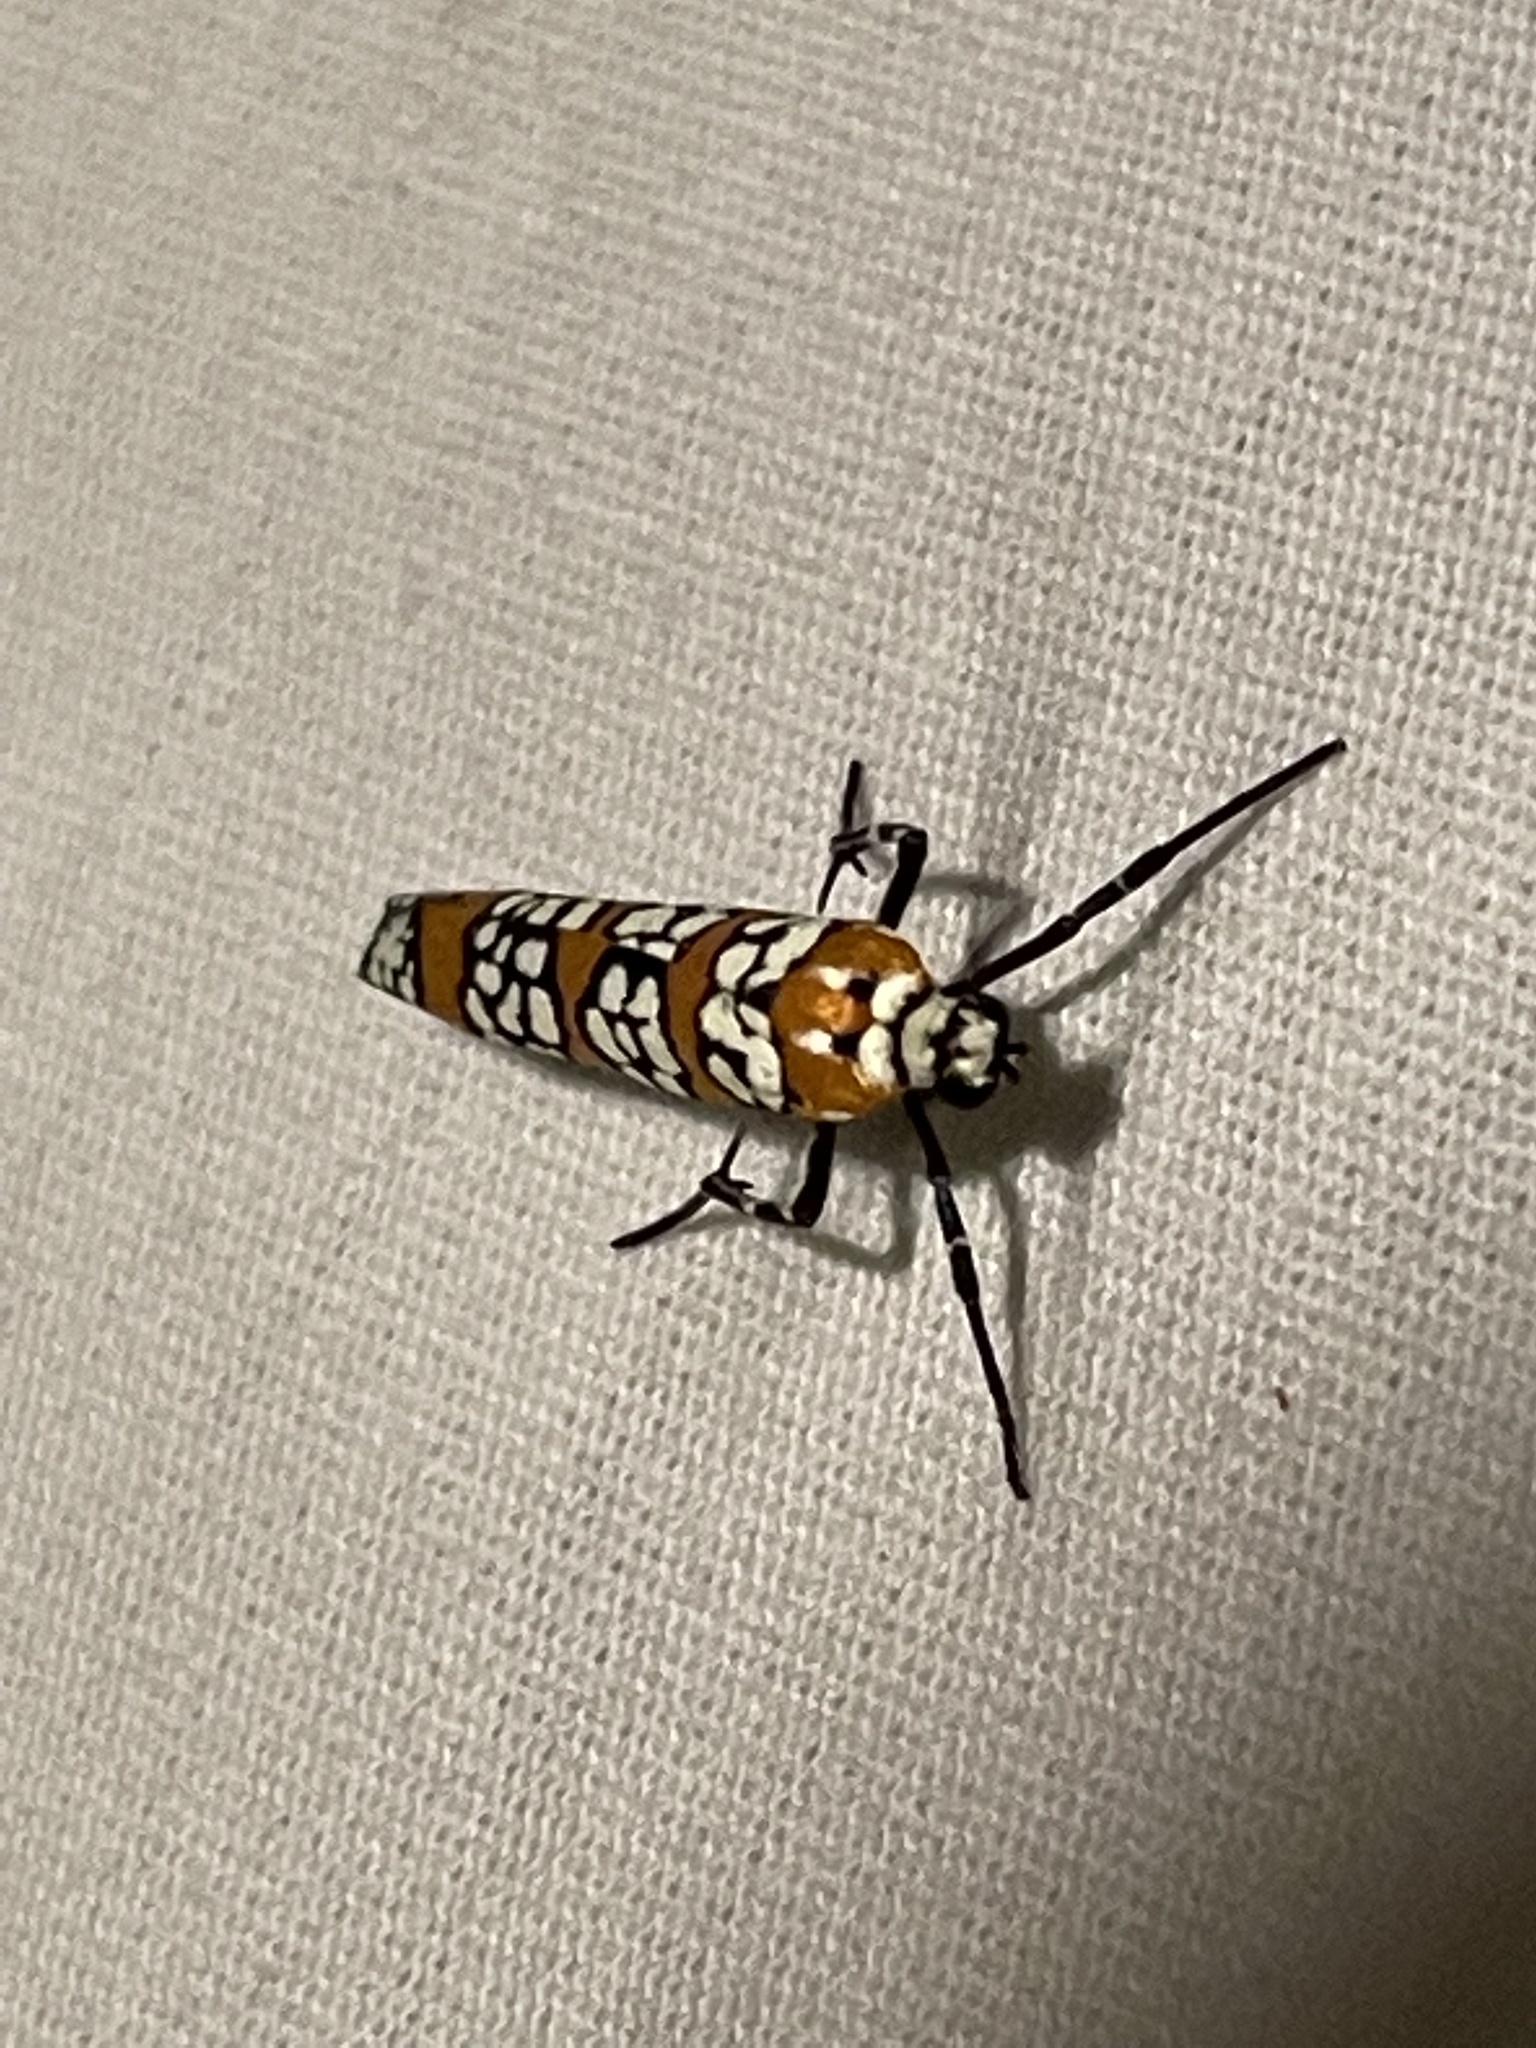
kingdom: Animalia
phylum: Arthropoda
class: Insecta
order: Lepidoptera
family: Attevidae
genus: Atteva
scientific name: Atteva punctella
